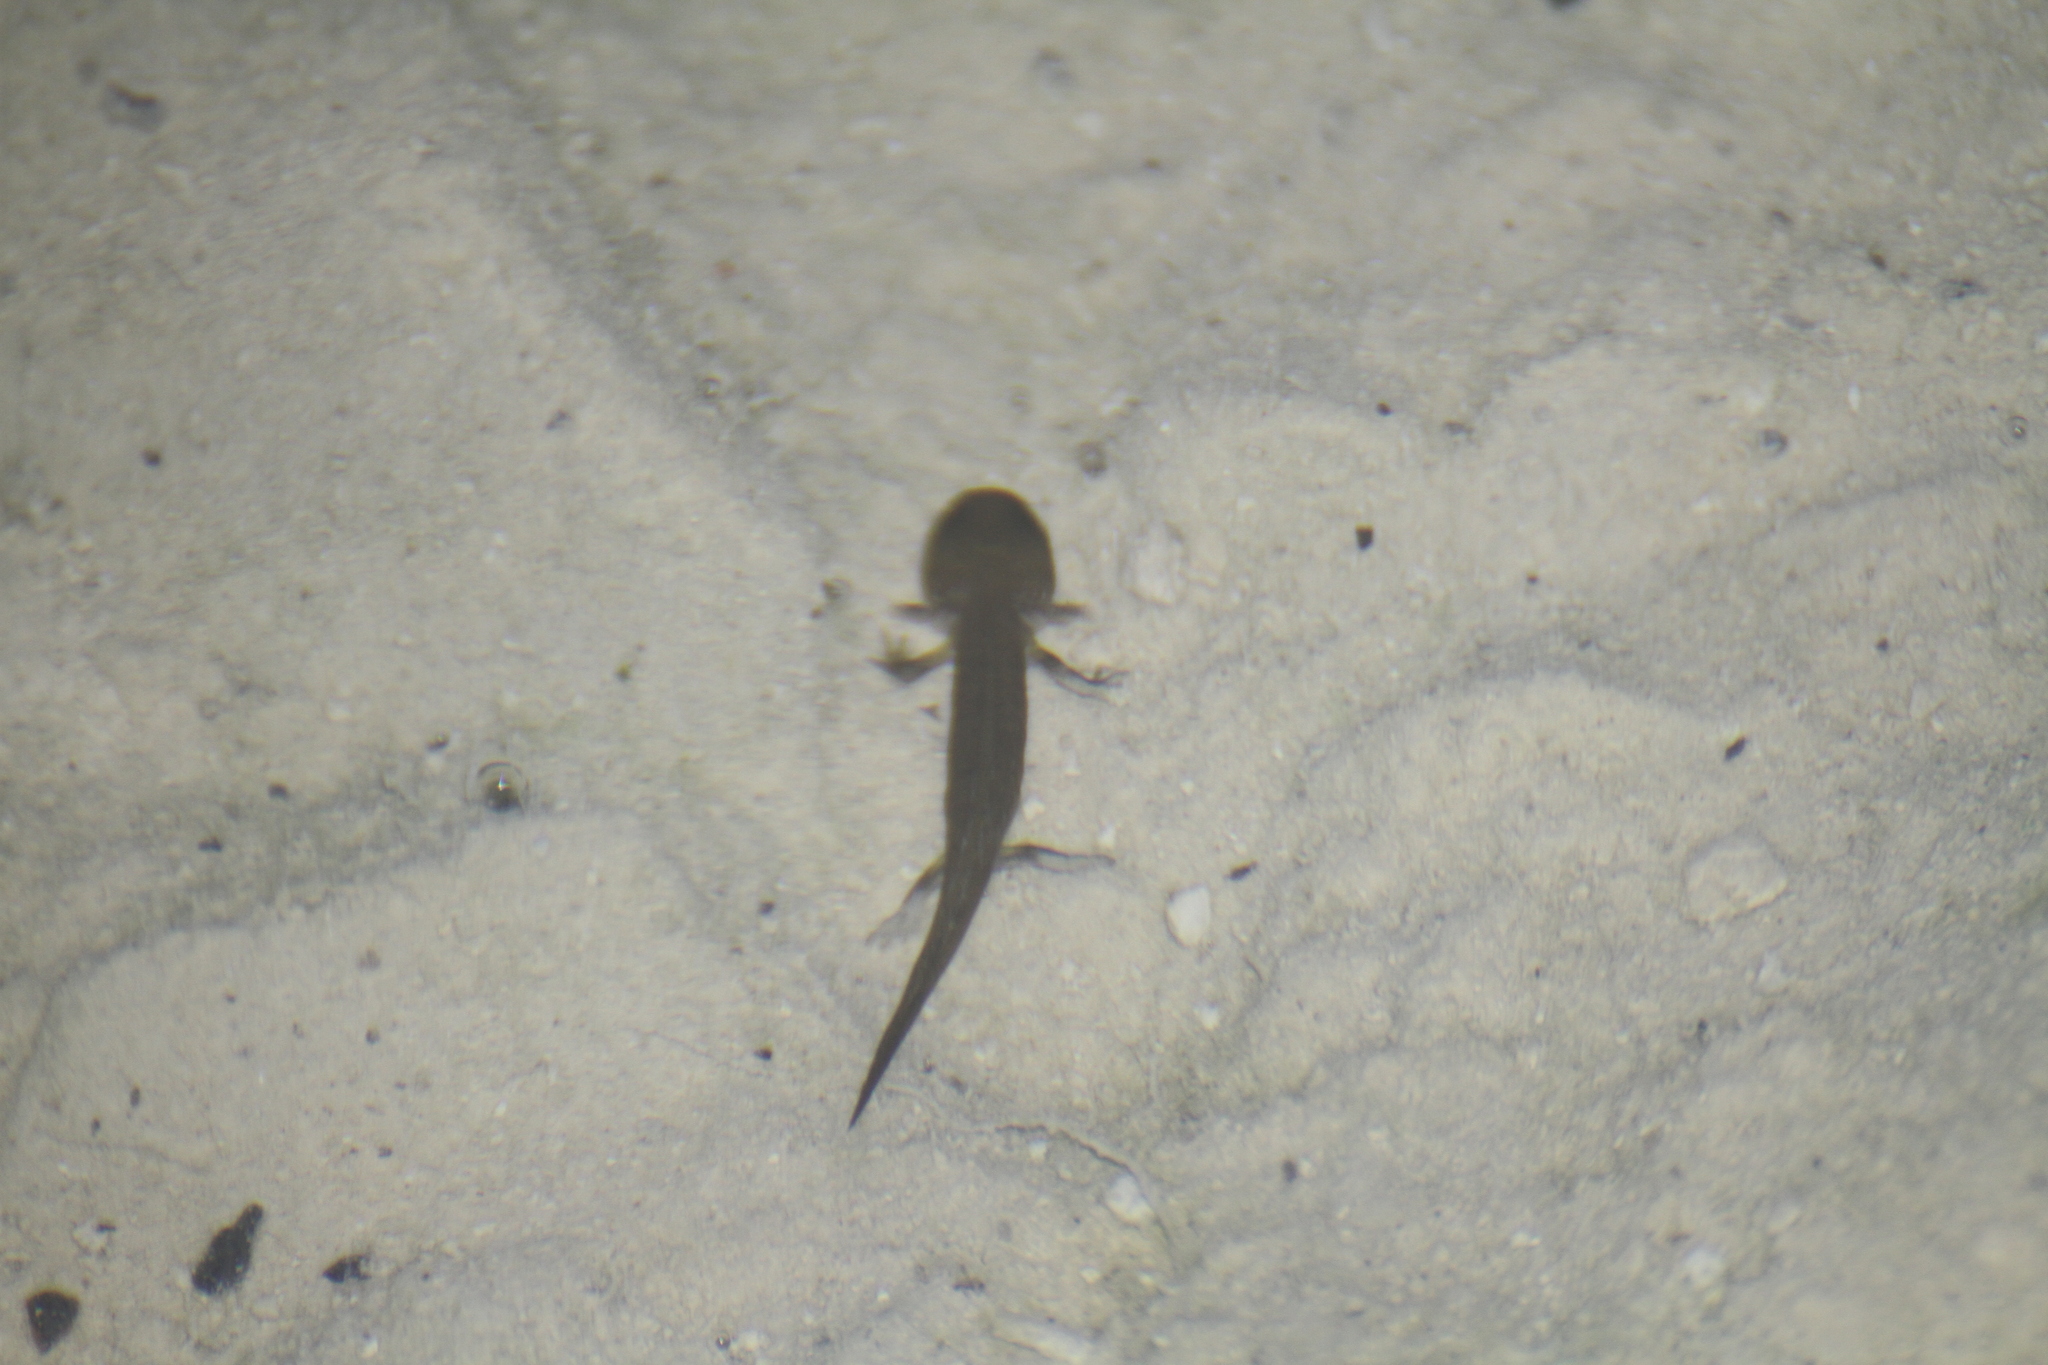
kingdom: Animalia
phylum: Chordata
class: Amphibia
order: Caudata
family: Salamandridae
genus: Salamandra
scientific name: Salamandra salamandra
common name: Fire salamander
